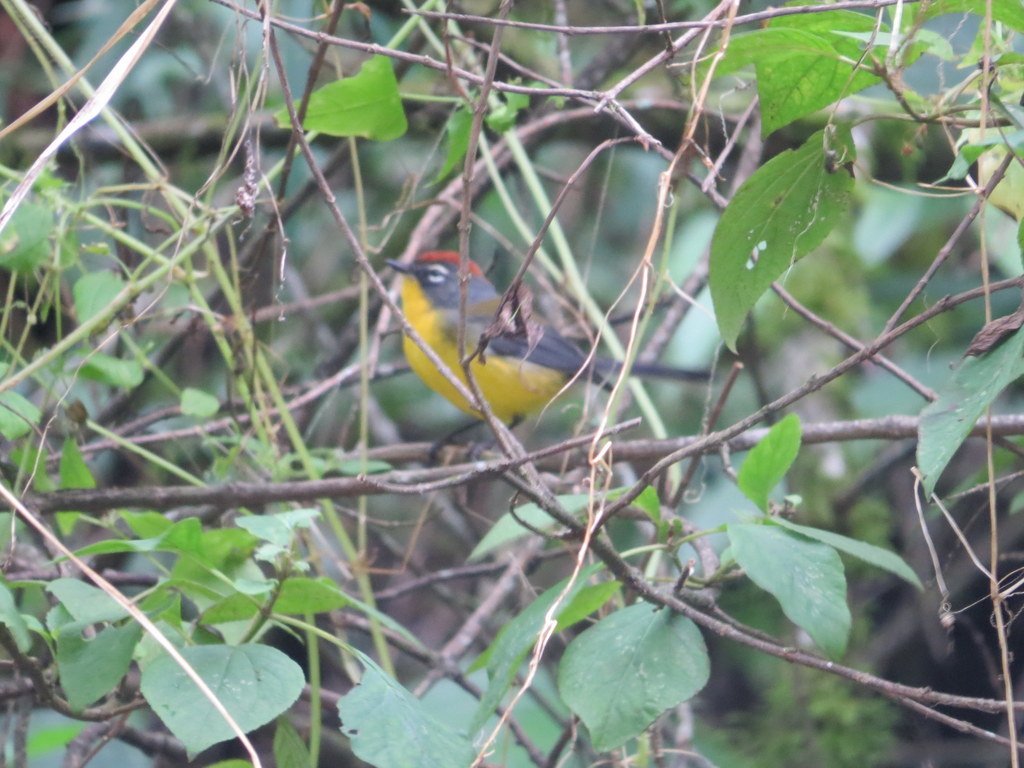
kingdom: Animalia
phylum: Chordata
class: Aves
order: Passeriformes
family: Parulidae
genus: Myioborus
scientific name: Myioborus brunniceps
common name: Brown-capped whitestart
